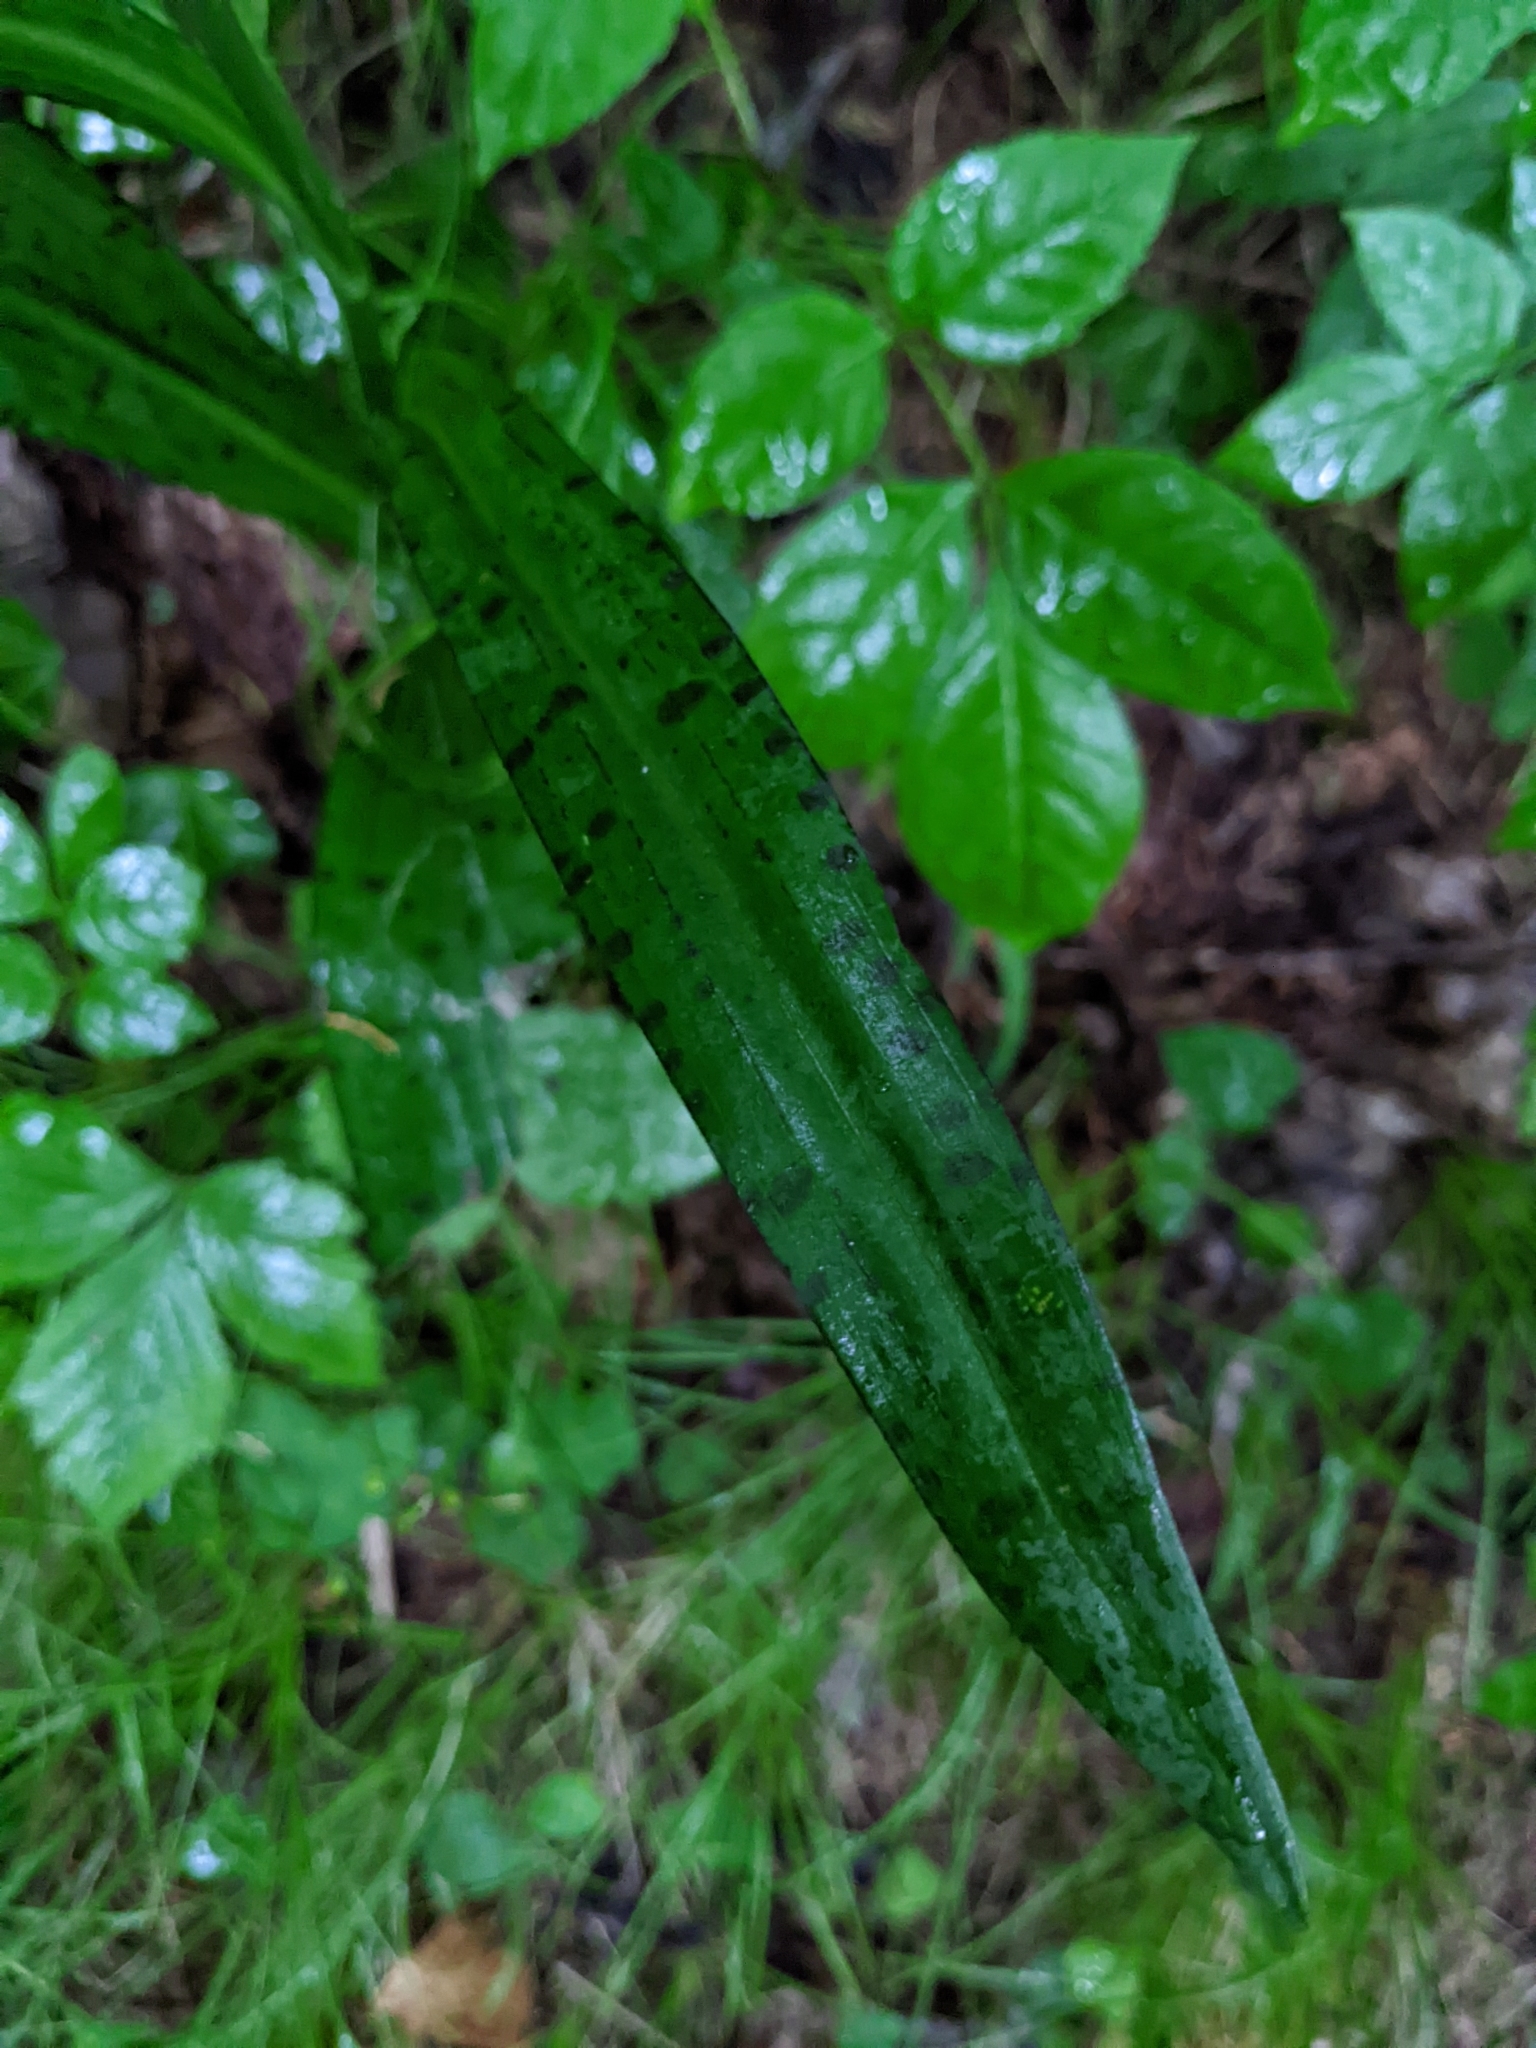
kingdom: Plantae
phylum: Tracheophyta
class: Liliopsida
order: Asparagales
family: Orchidaceae
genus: Dactylorhiza
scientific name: Dactylorhiza maculata
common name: Heath spotted-orchid
